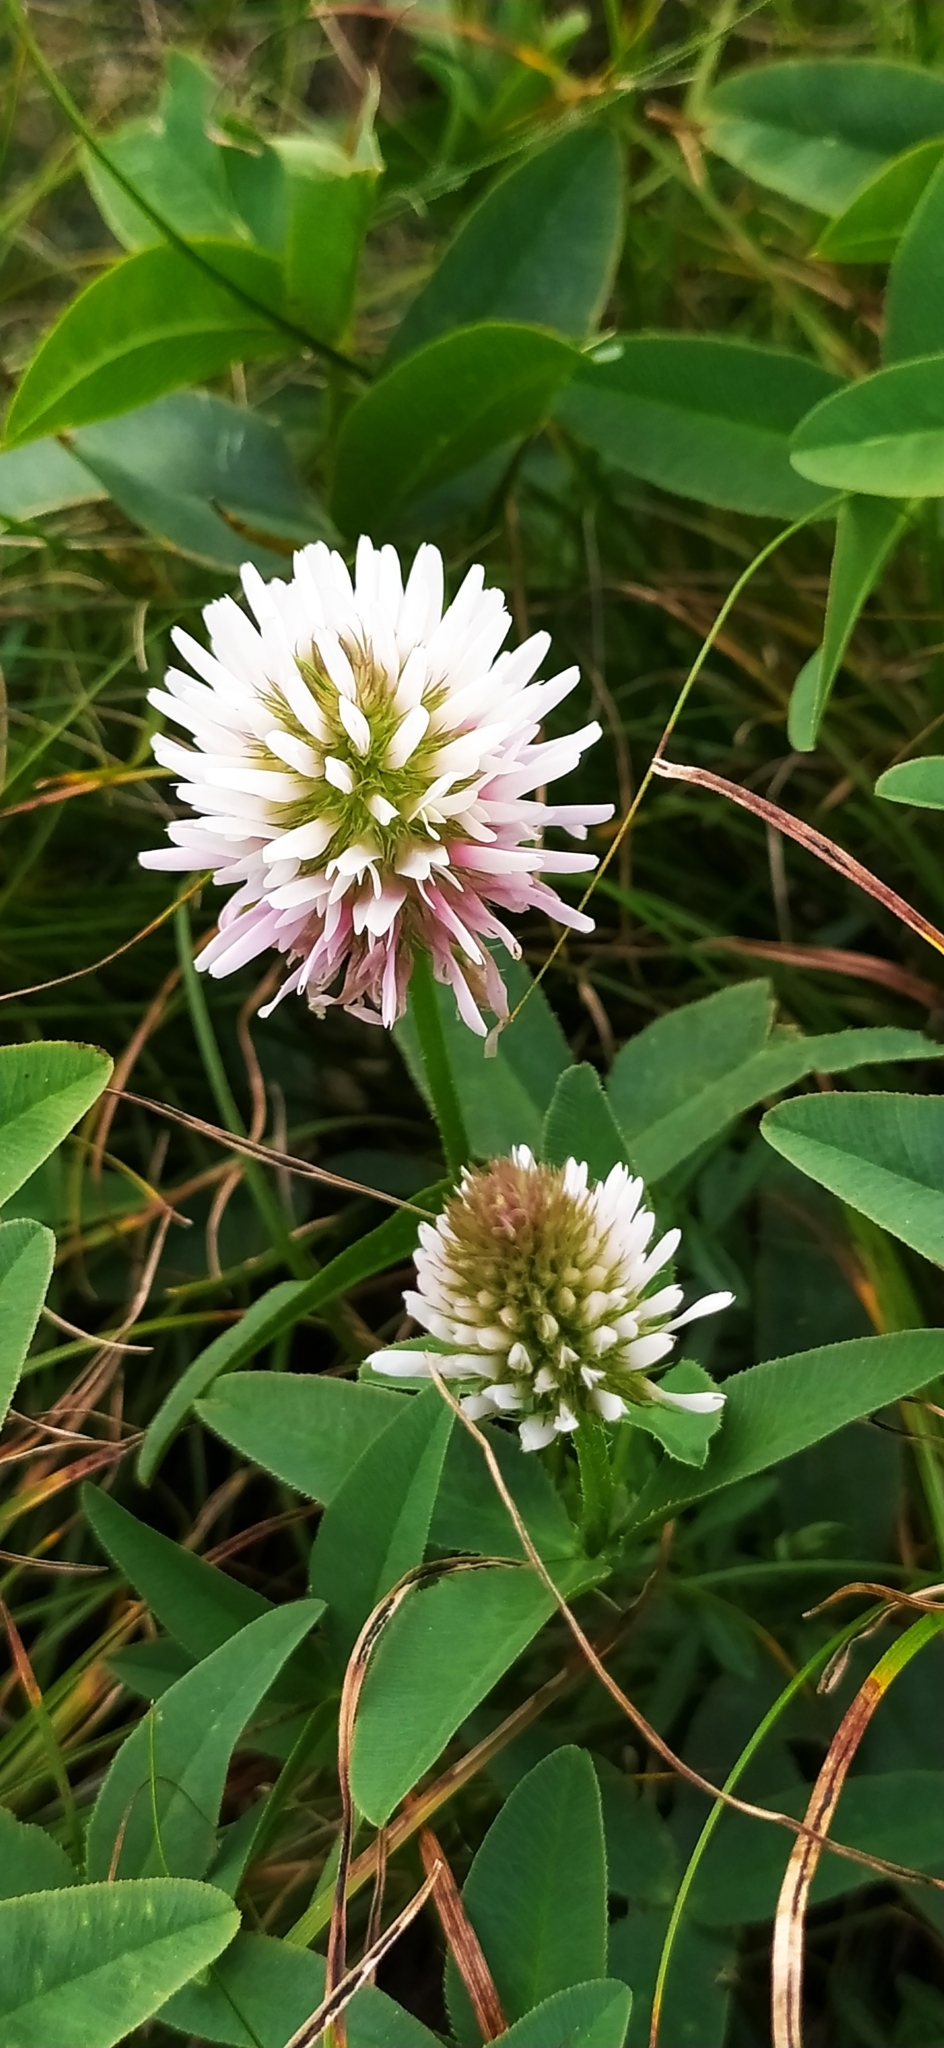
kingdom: Plantae
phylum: Tracheophyta
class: Magnoliopsida
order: Fabales
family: Fabaceae
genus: Trifolium
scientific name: Trifolium ambiguum
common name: Kura clover
